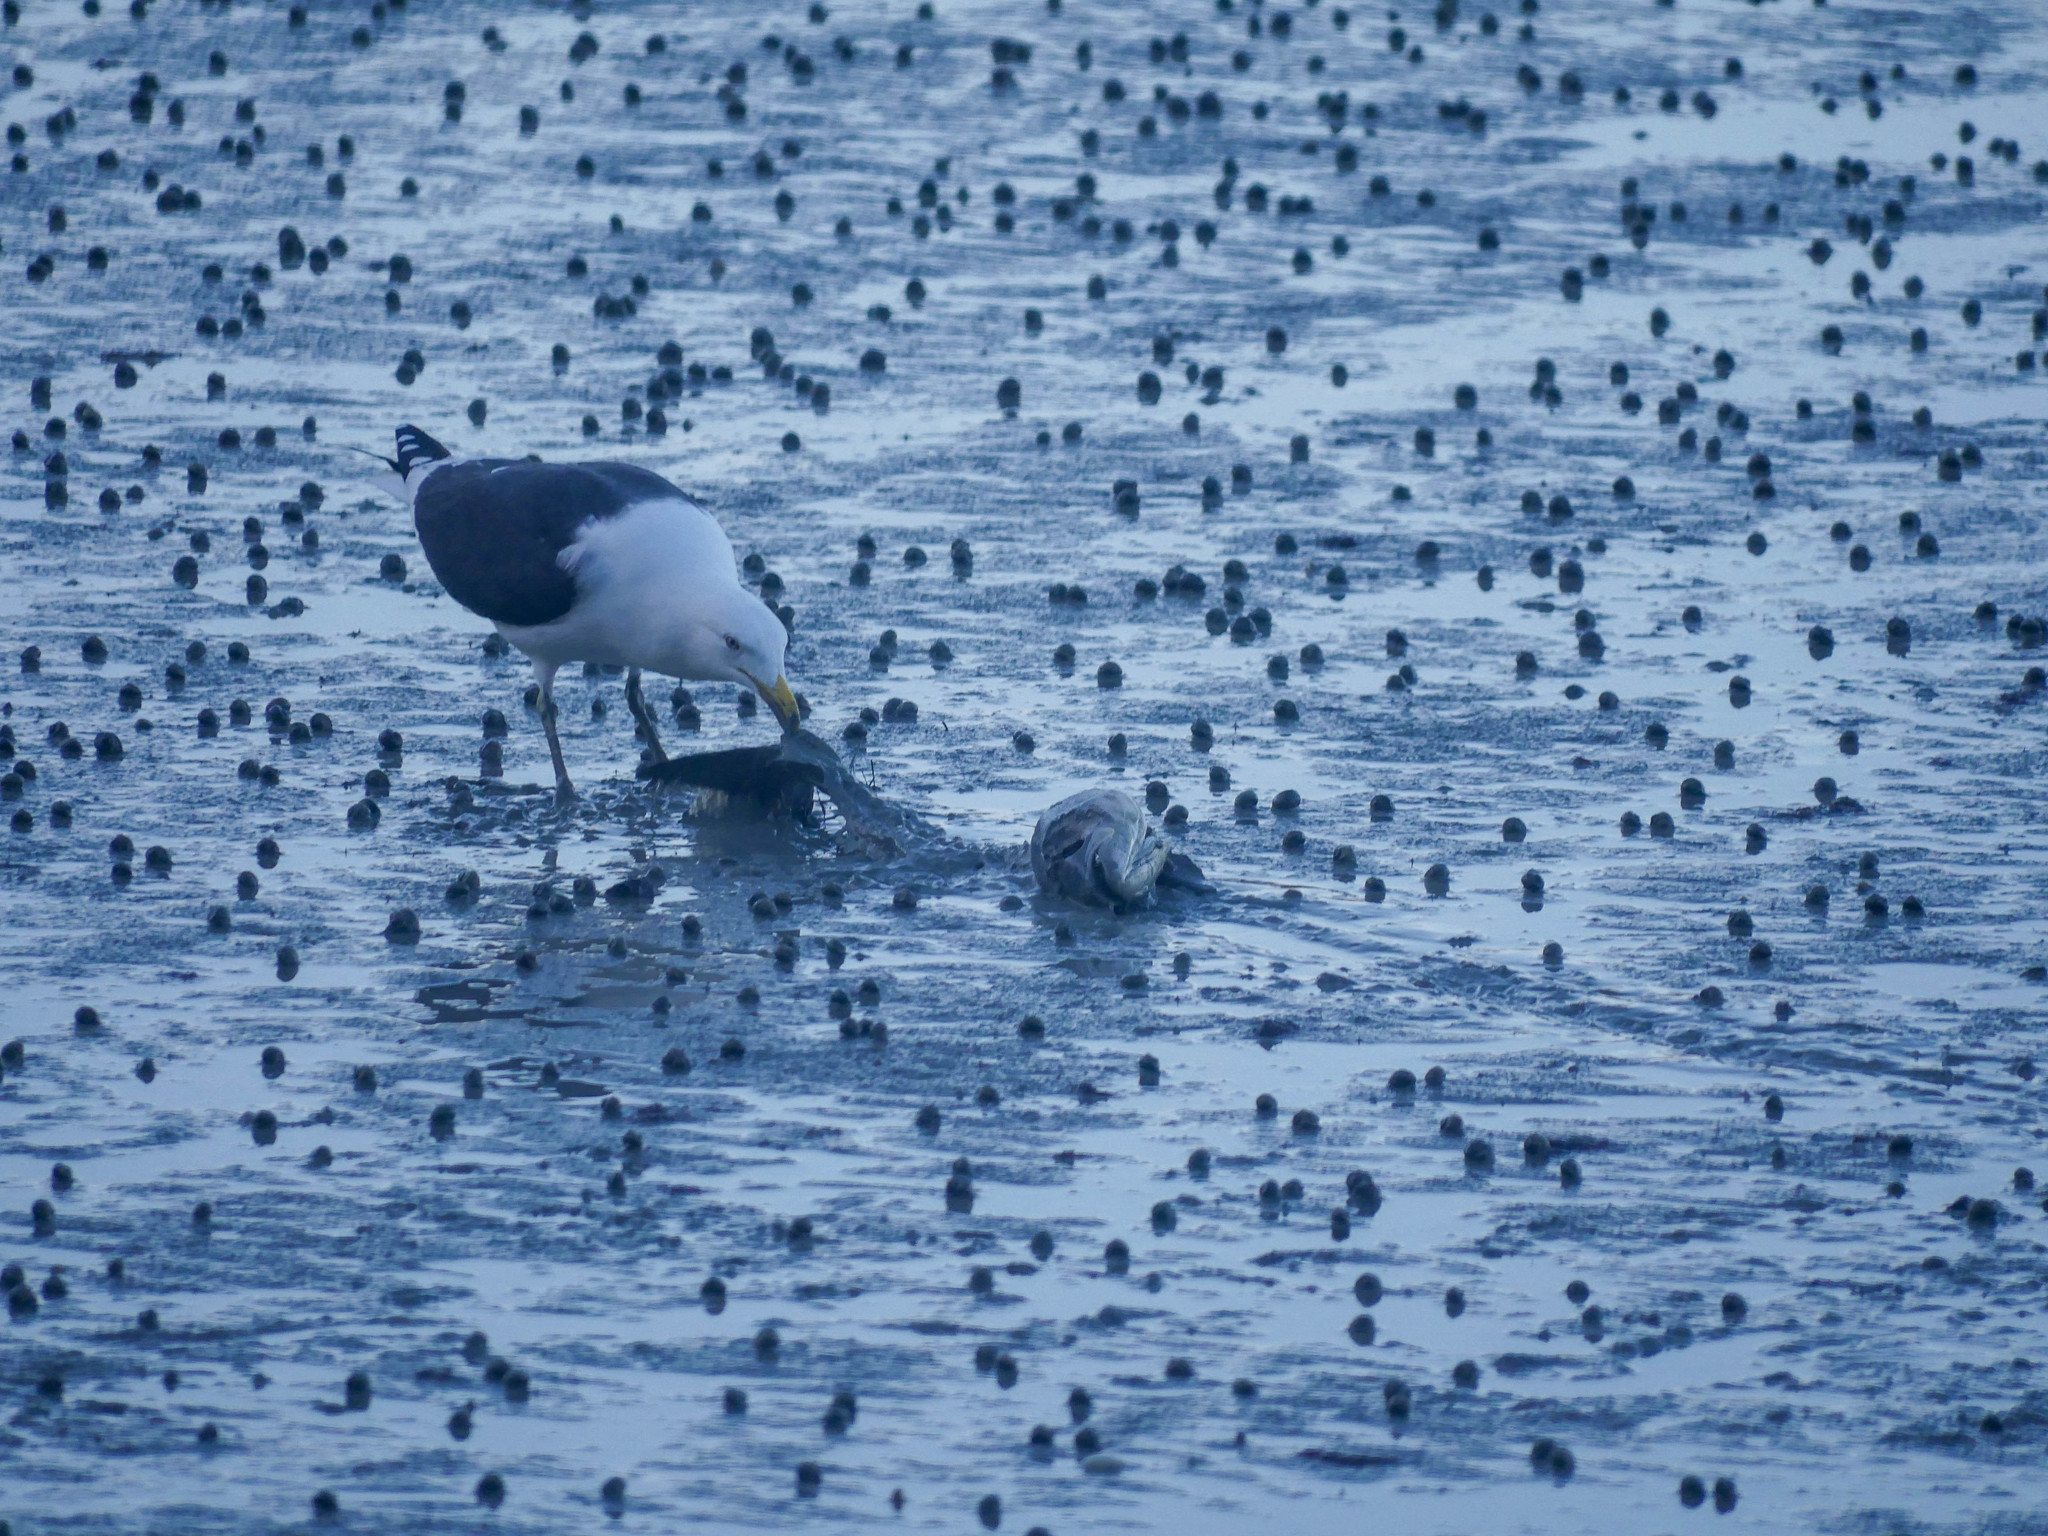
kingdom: Animalia
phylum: Chordata
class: Aves
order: Charadriiformes
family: Laridae
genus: Larus
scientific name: Larus dominicanus
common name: Kelp gull
